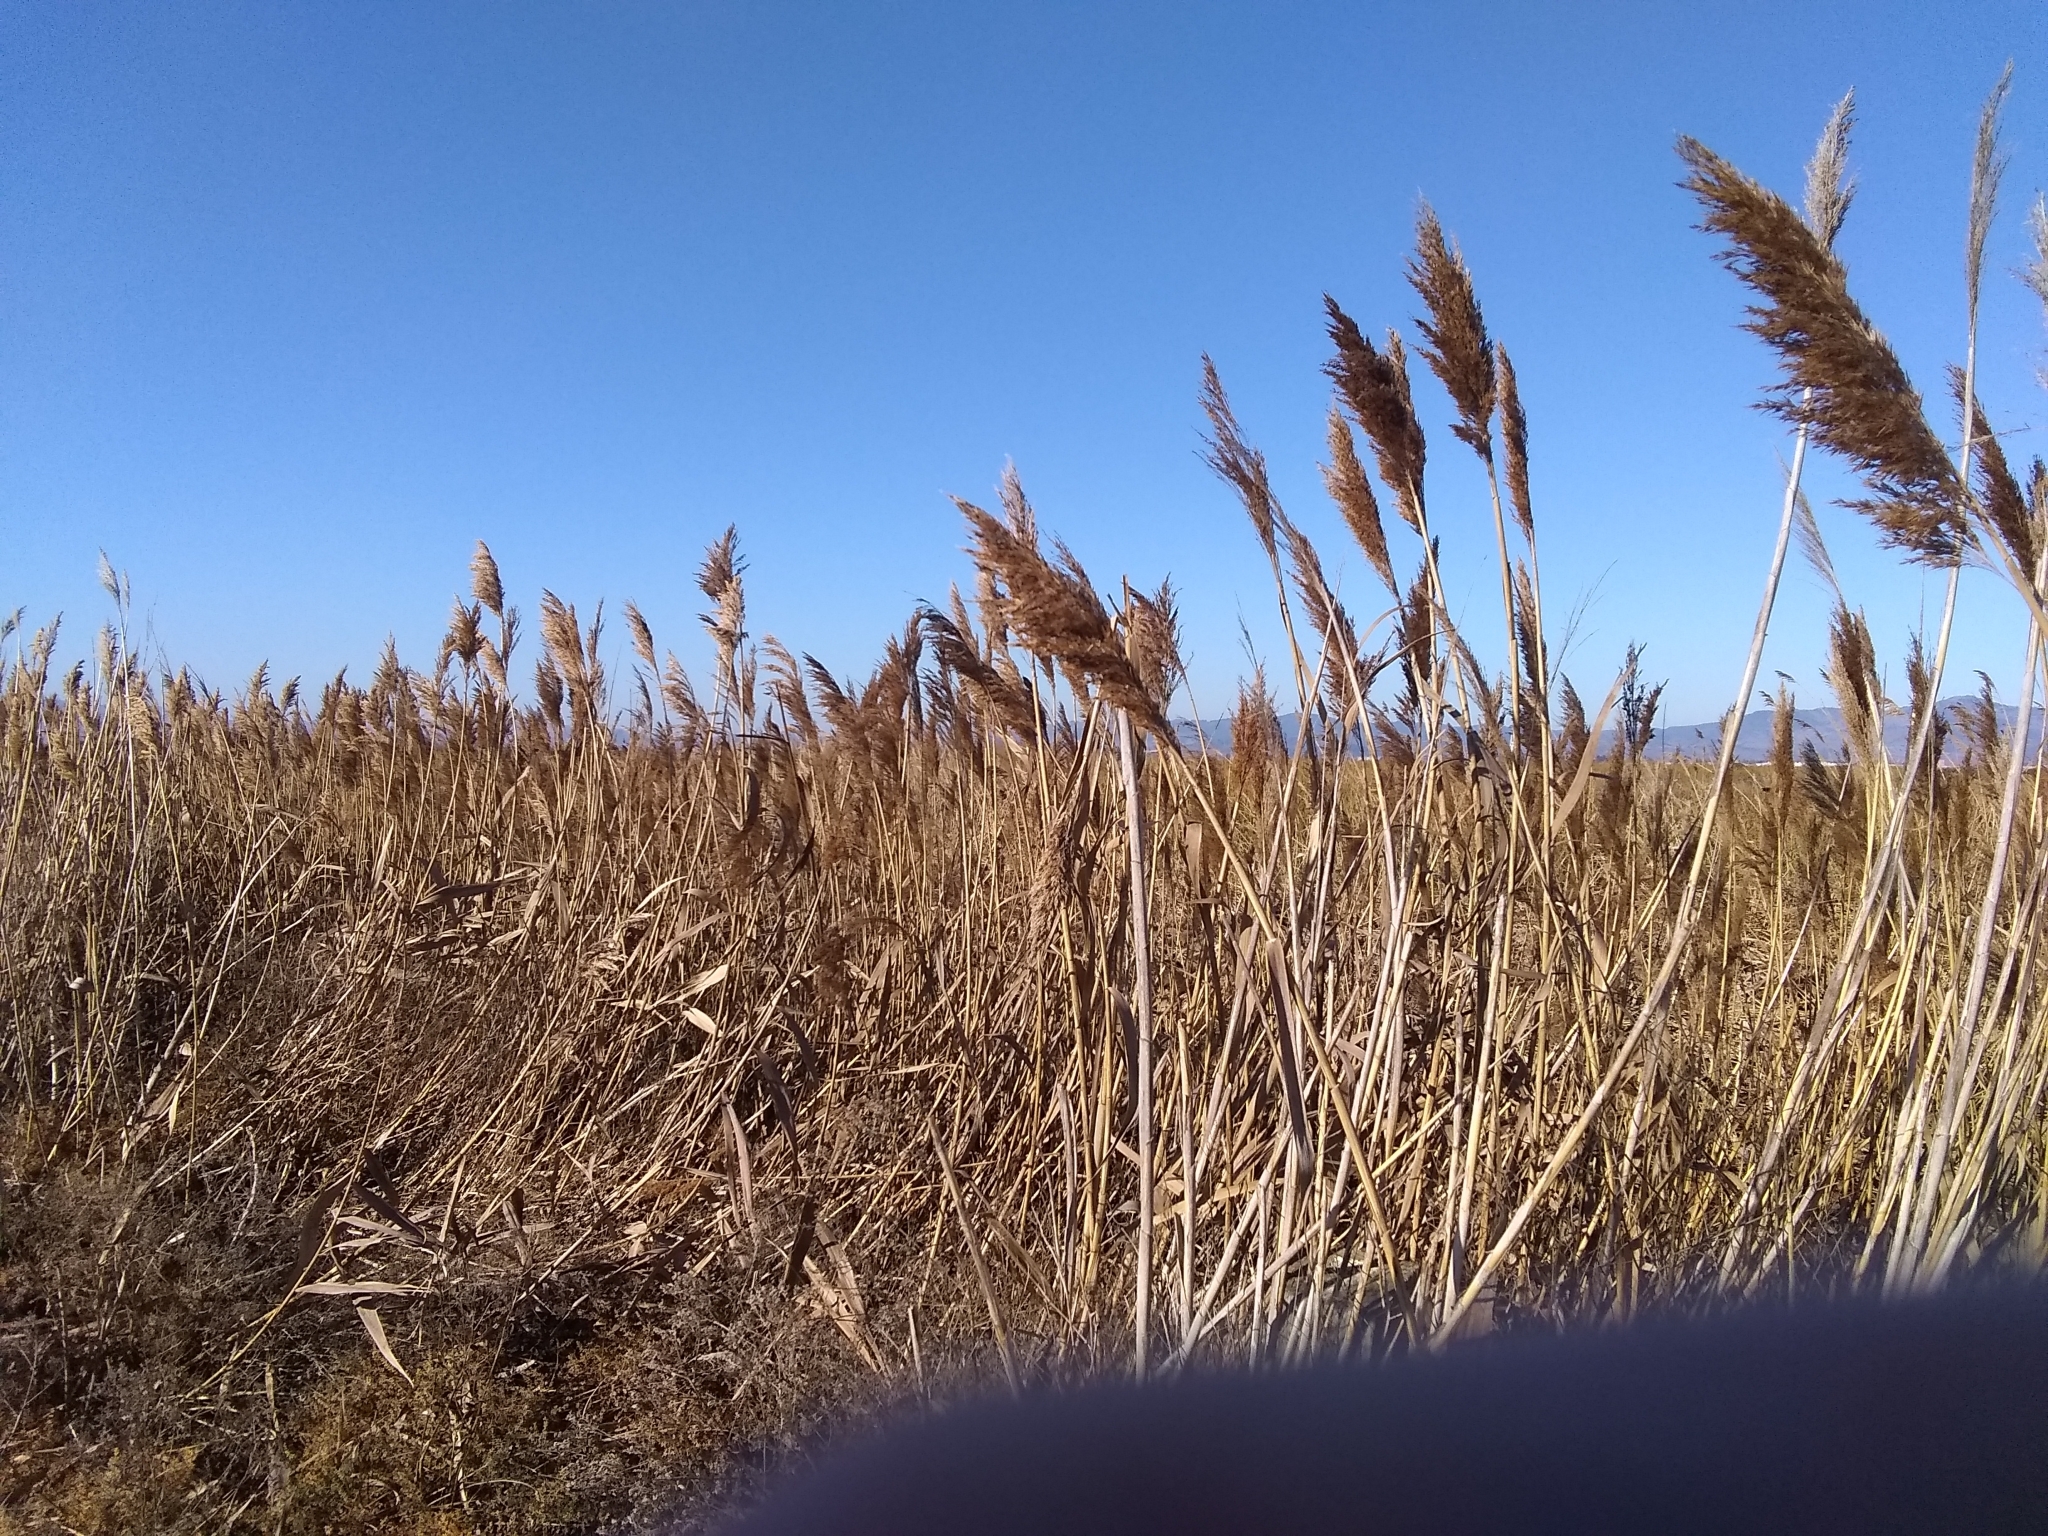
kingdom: Plantae
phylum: Tracheophyta
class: Liliopsida
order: Poales
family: Poaceae
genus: Phragmites
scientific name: Phragmites australis
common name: Common reed
